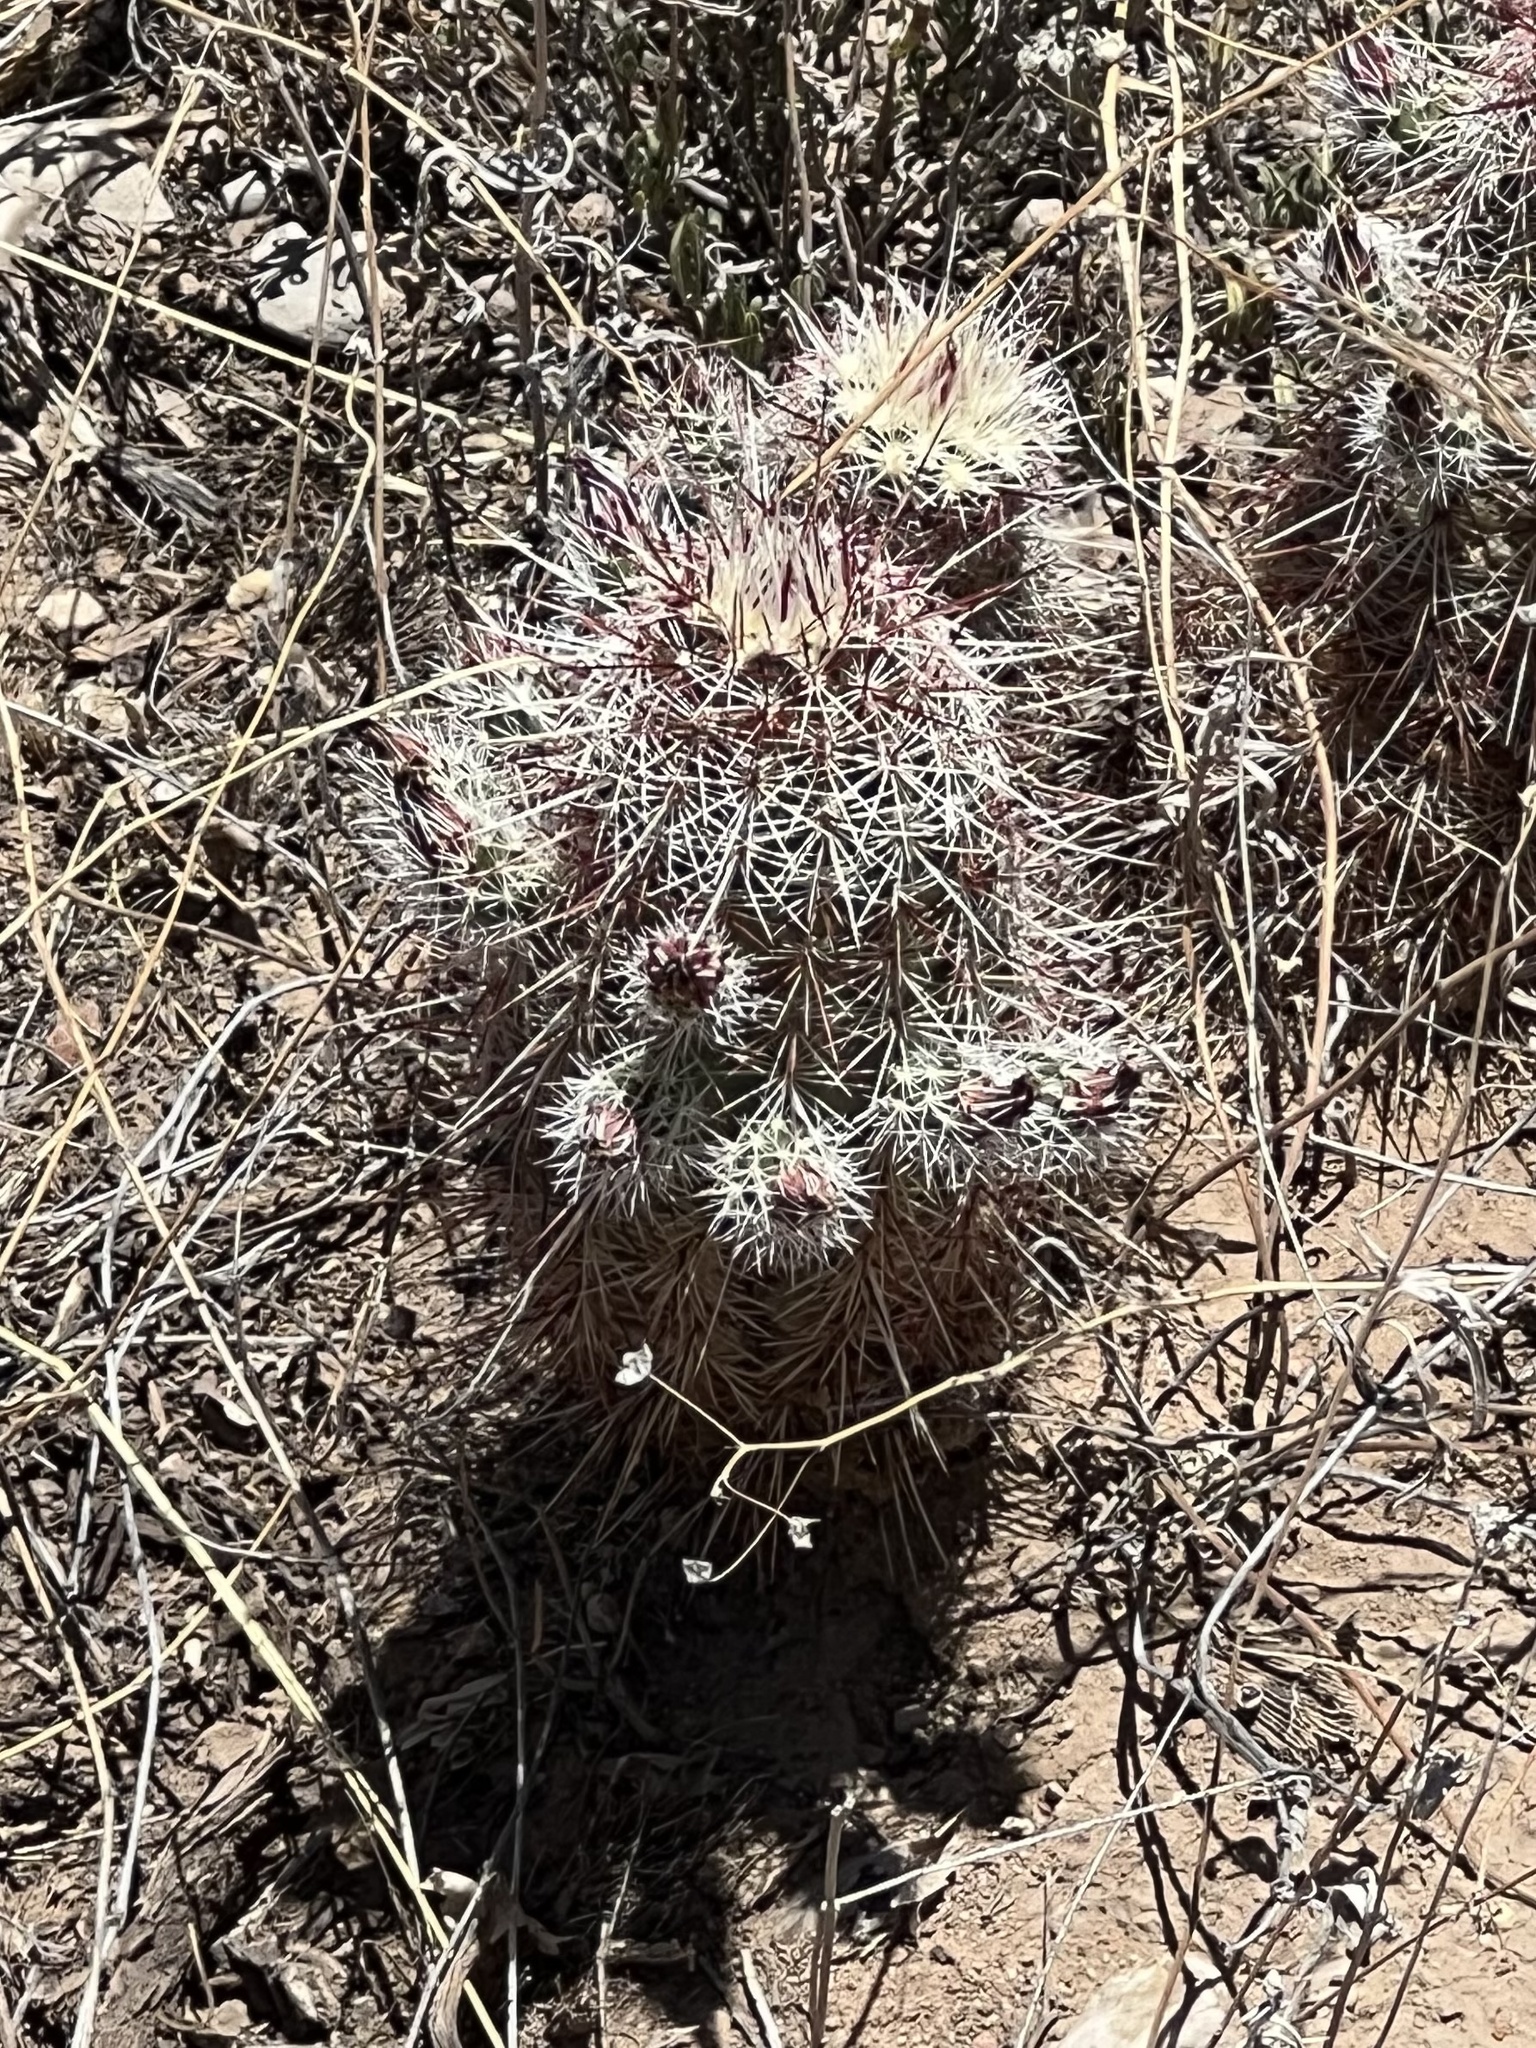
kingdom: Plantae
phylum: Tracheophyta
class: Magnoliopsida
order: Caryophyllales
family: Cactaceae
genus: Echinocereus
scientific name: Echinocereus viridiflorus
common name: Nylon hedgehog cactus
